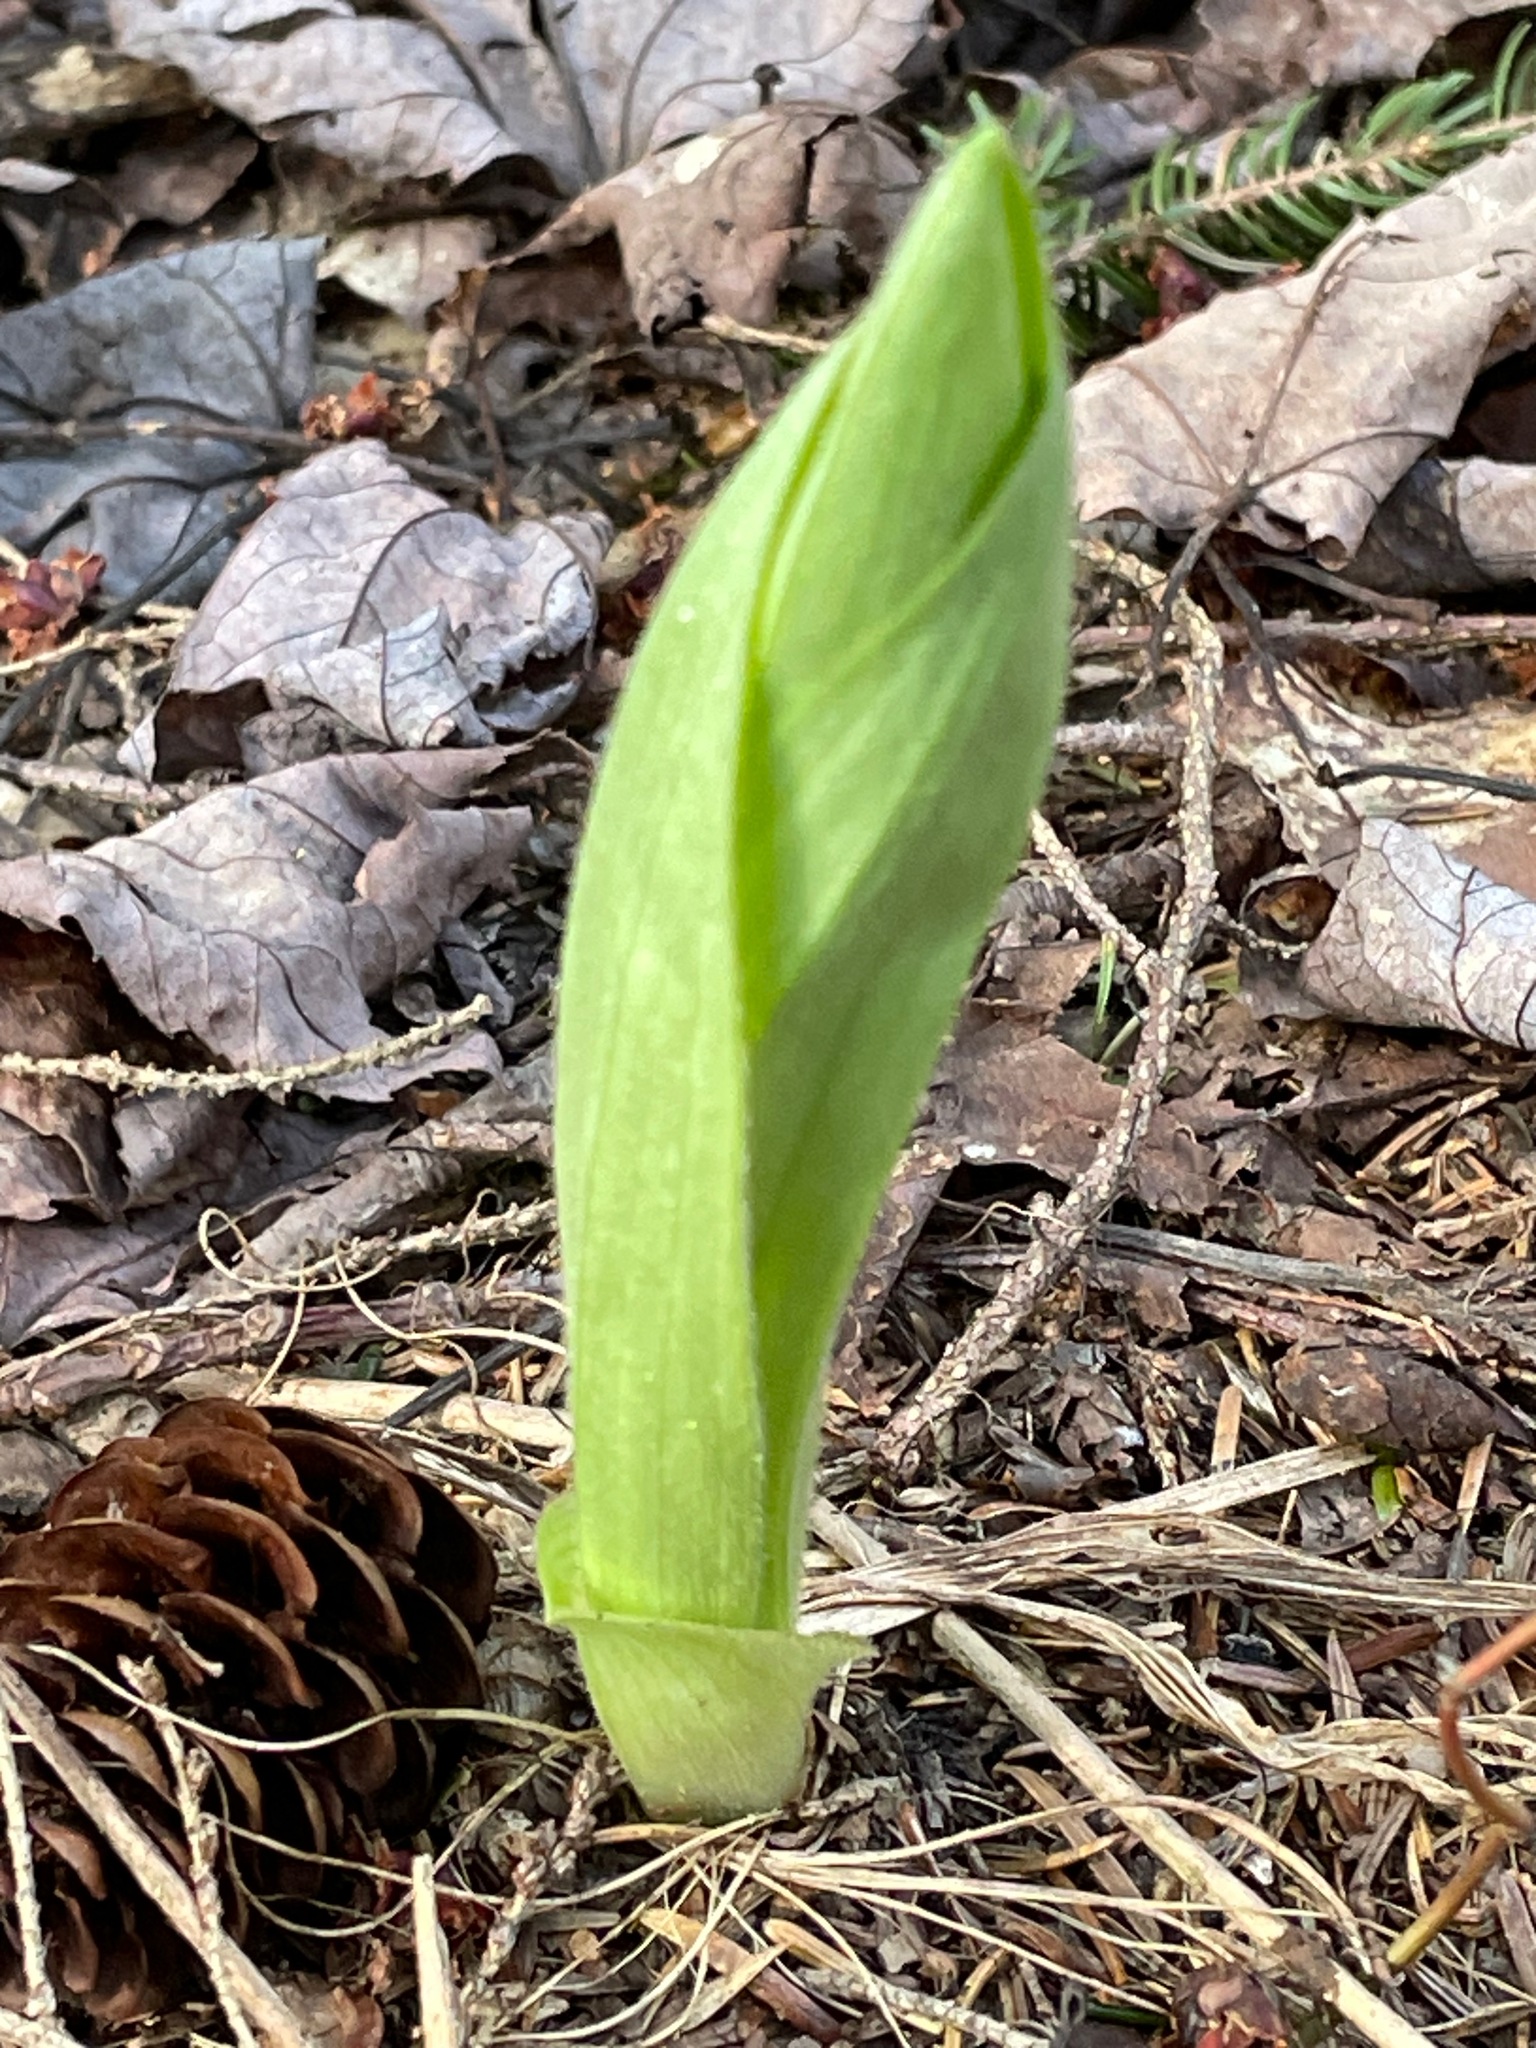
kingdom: Plantae
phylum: Tracheophyta
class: Liliopsida
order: Asparagales
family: Orchidaceae
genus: Cypripedium
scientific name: Cypripedium acaule
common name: Pink lady's-slipper
